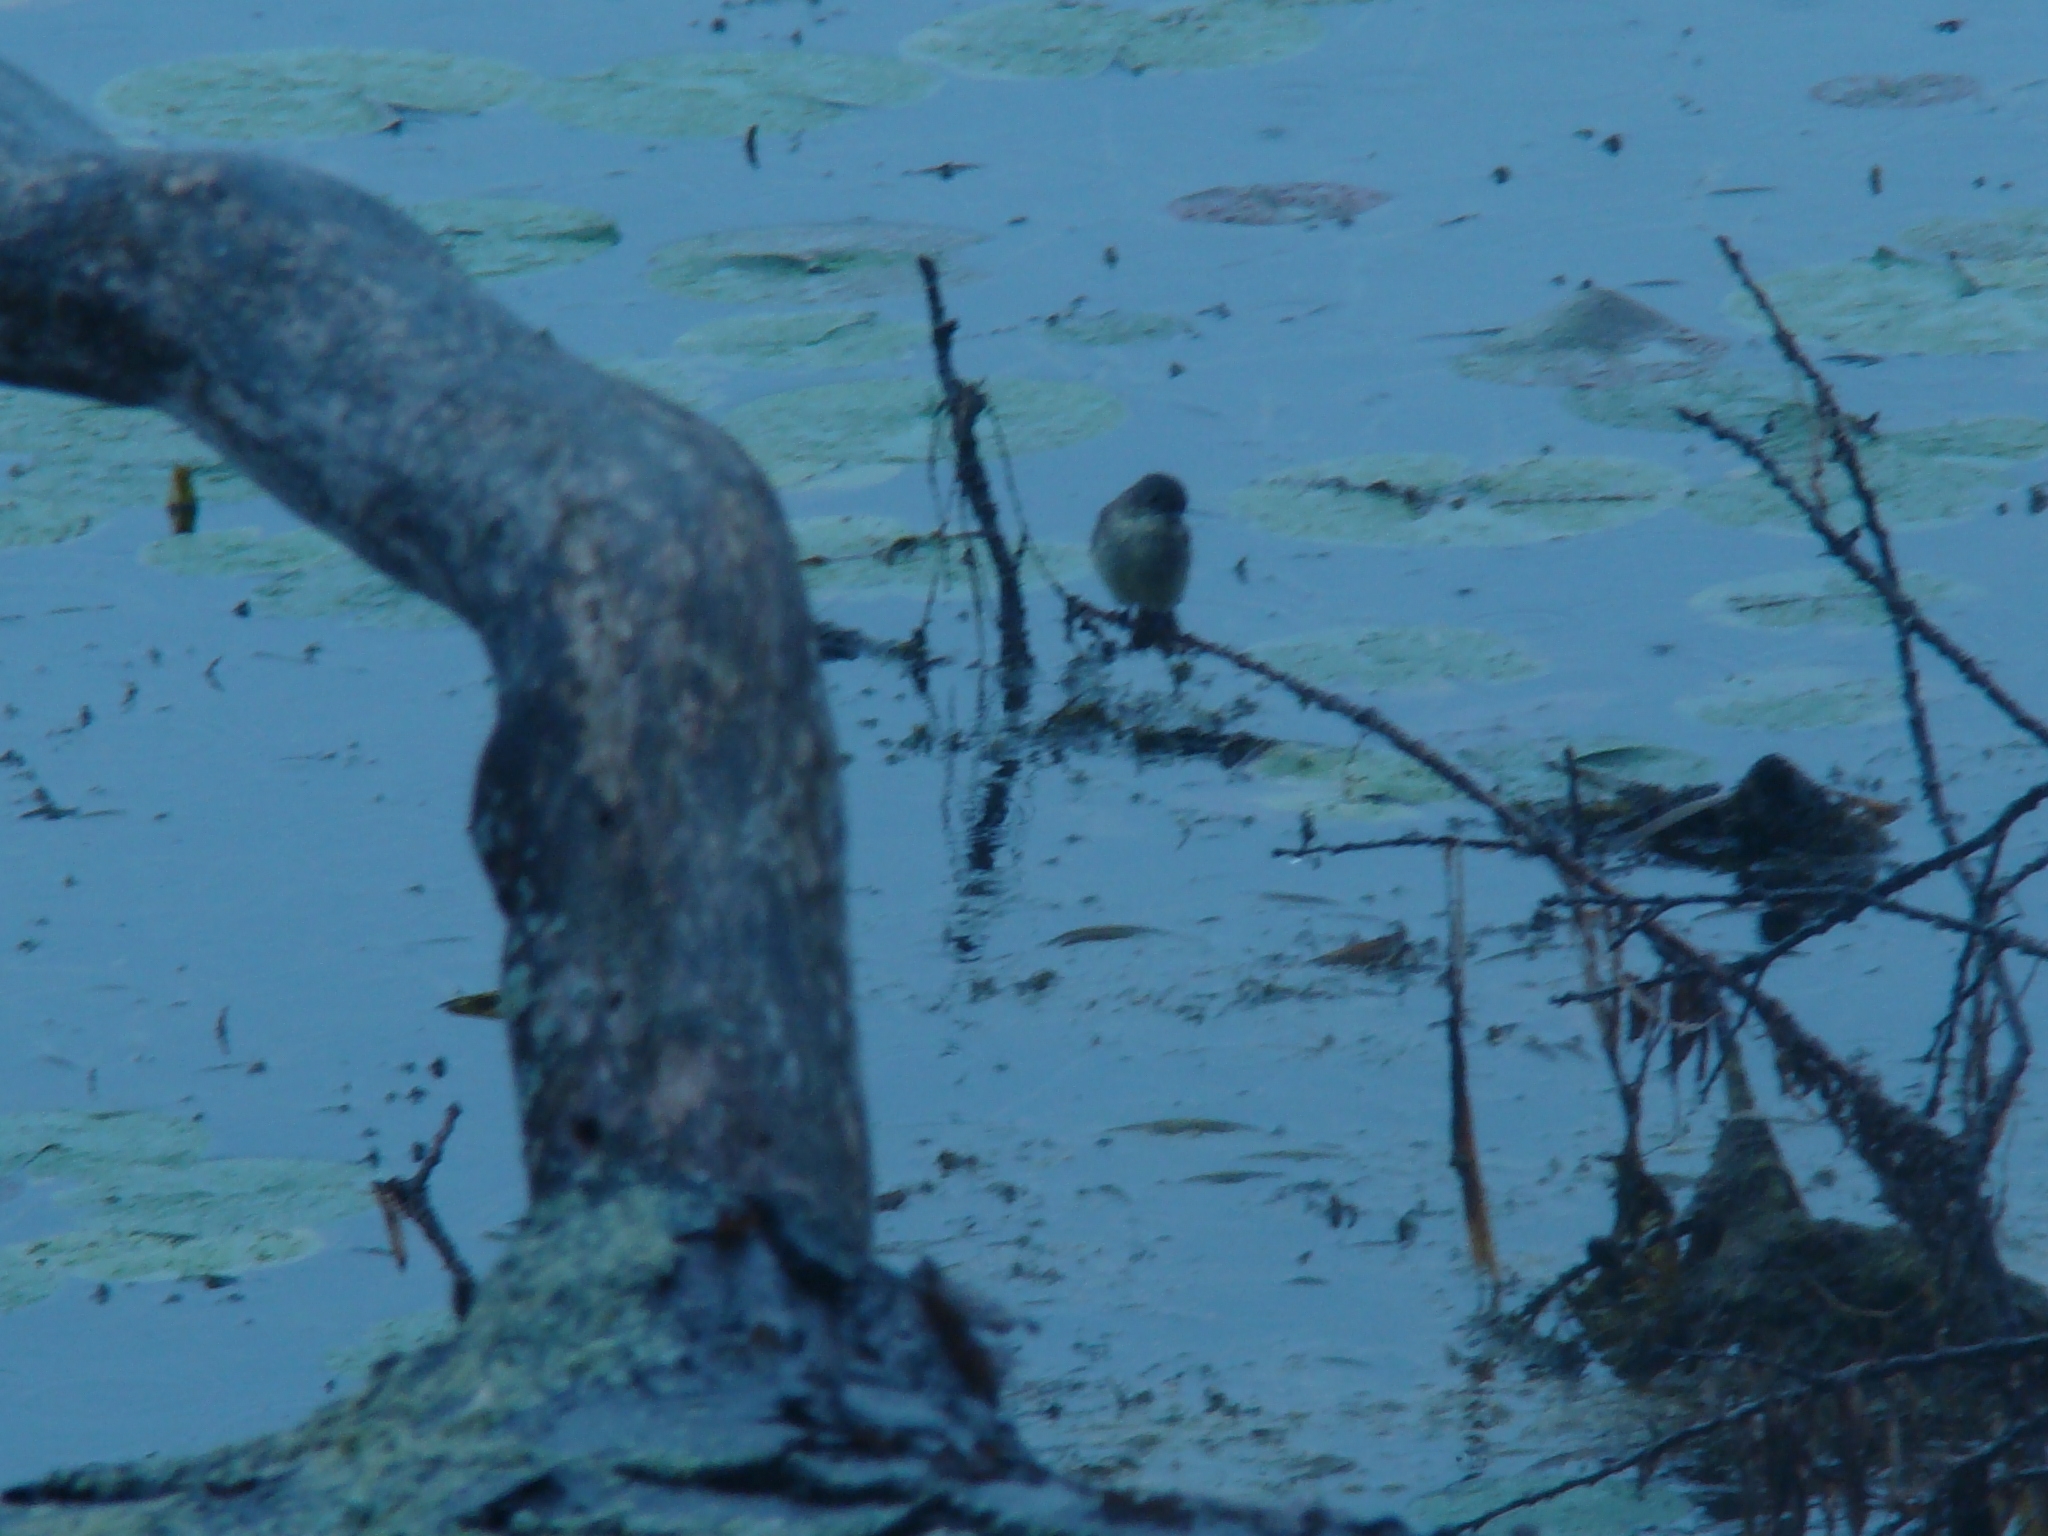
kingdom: Animalia
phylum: Chordata
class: Aves
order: Passeriformes
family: Tyrannidae
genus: Sayornis
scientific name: Sayornis phoebe
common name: Eastern phoebe
